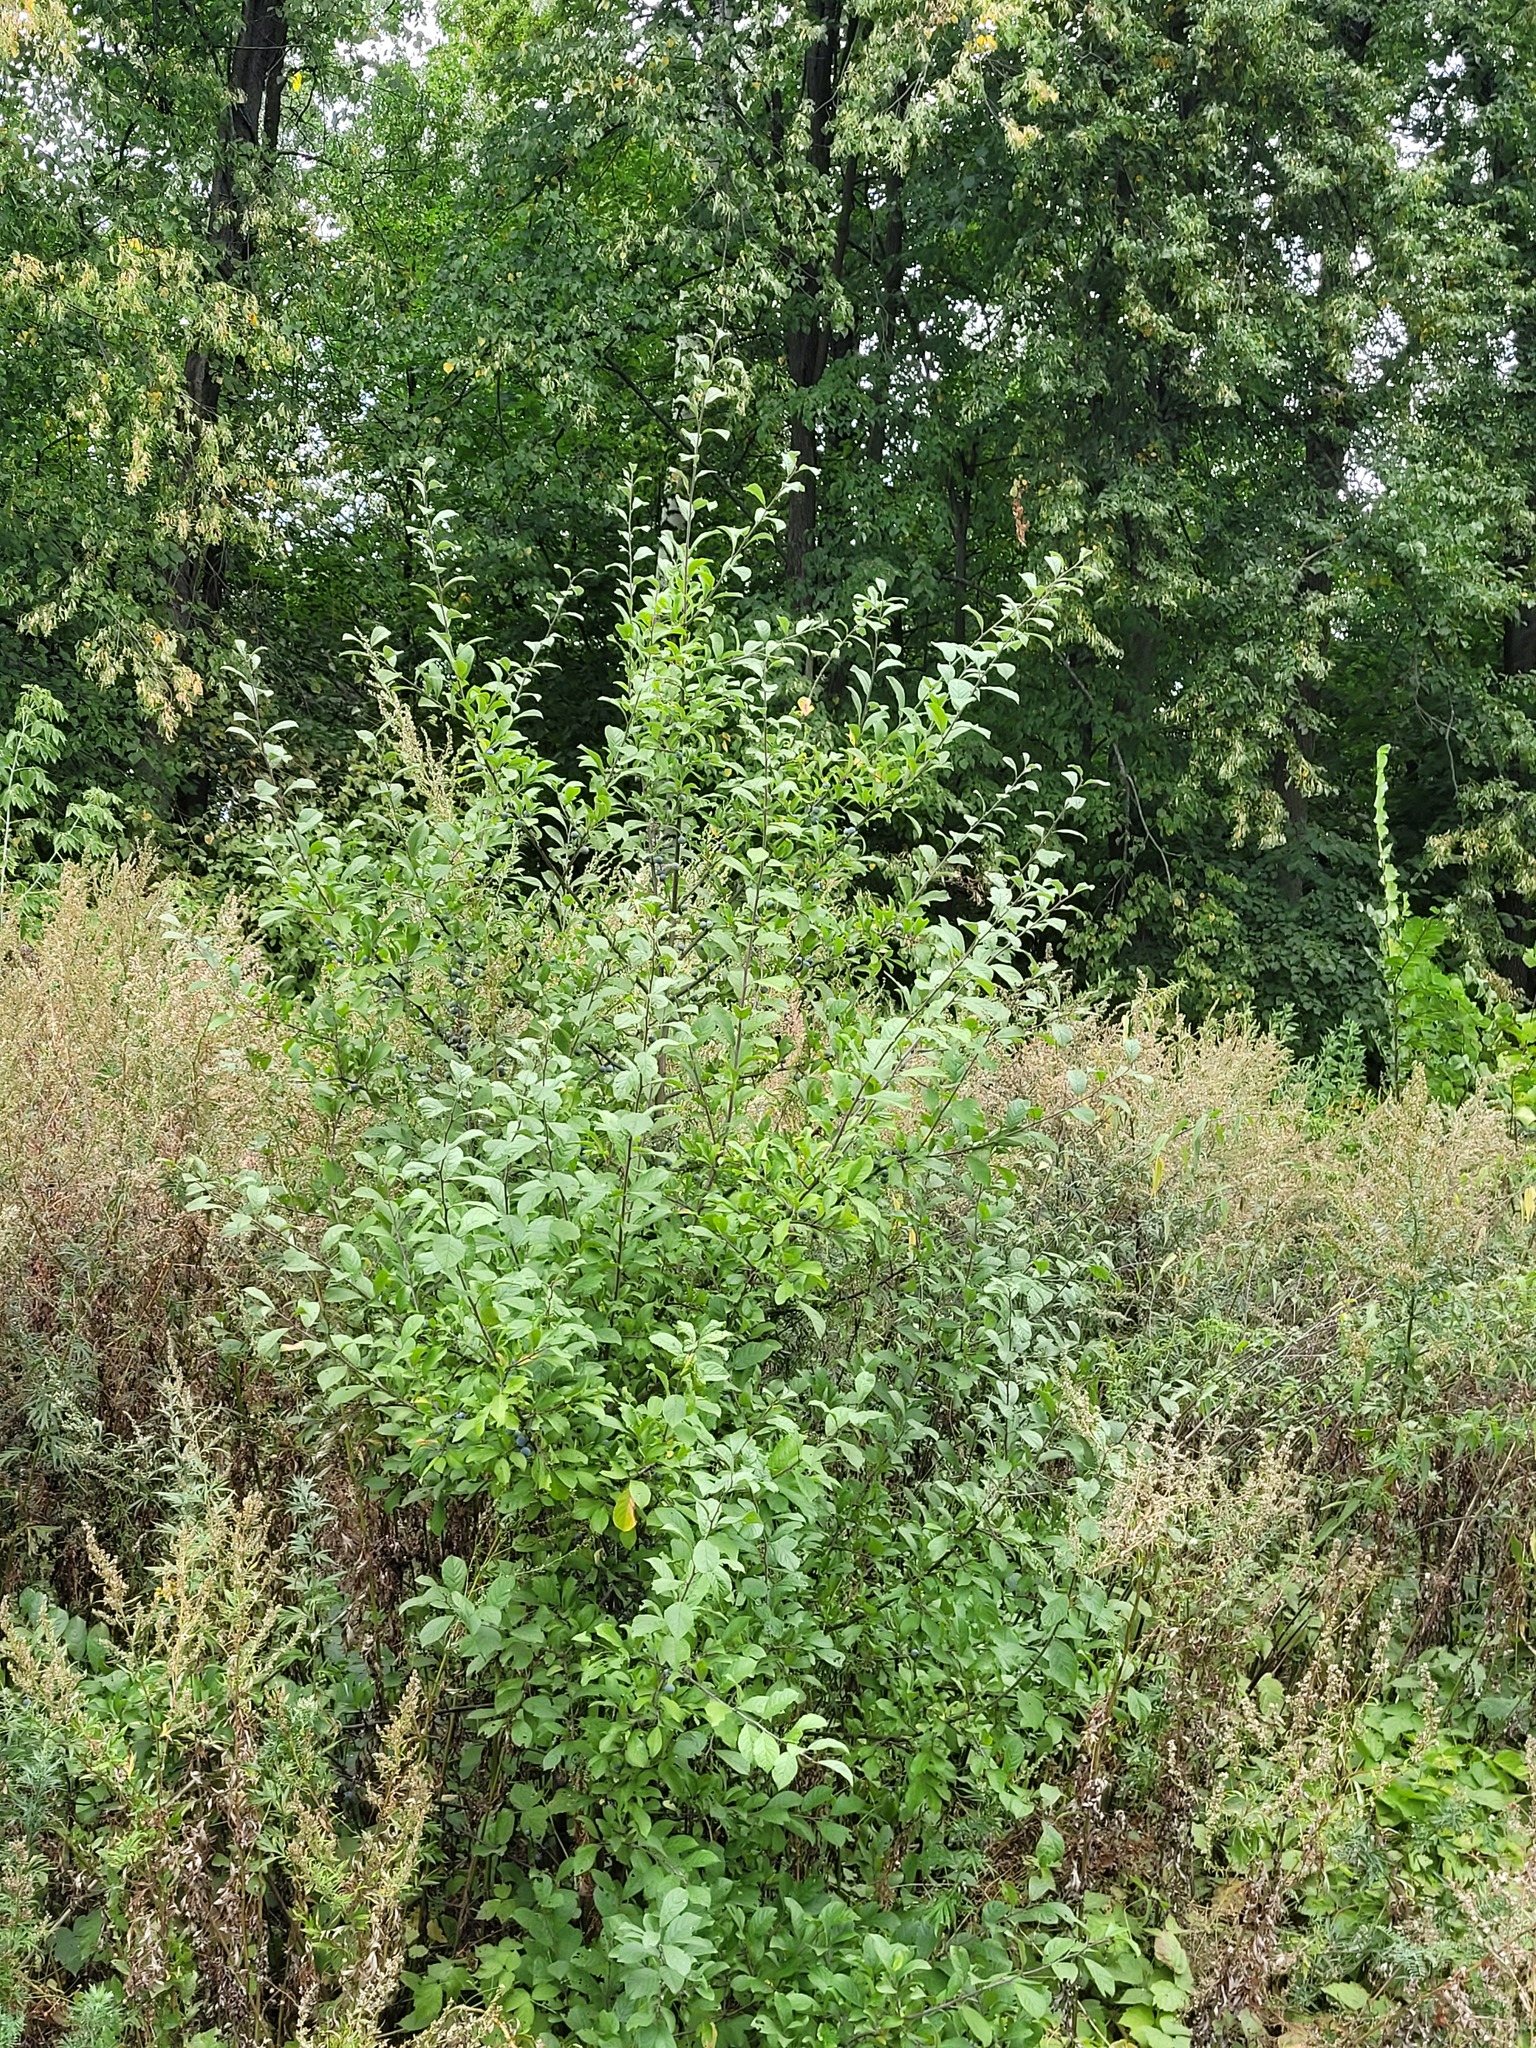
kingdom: Plantae
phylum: Tracheophyta
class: Magnoliopsida
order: Rosales
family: Rosaceae
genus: Prunus
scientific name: Prunus spinosa
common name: Blackthorn
